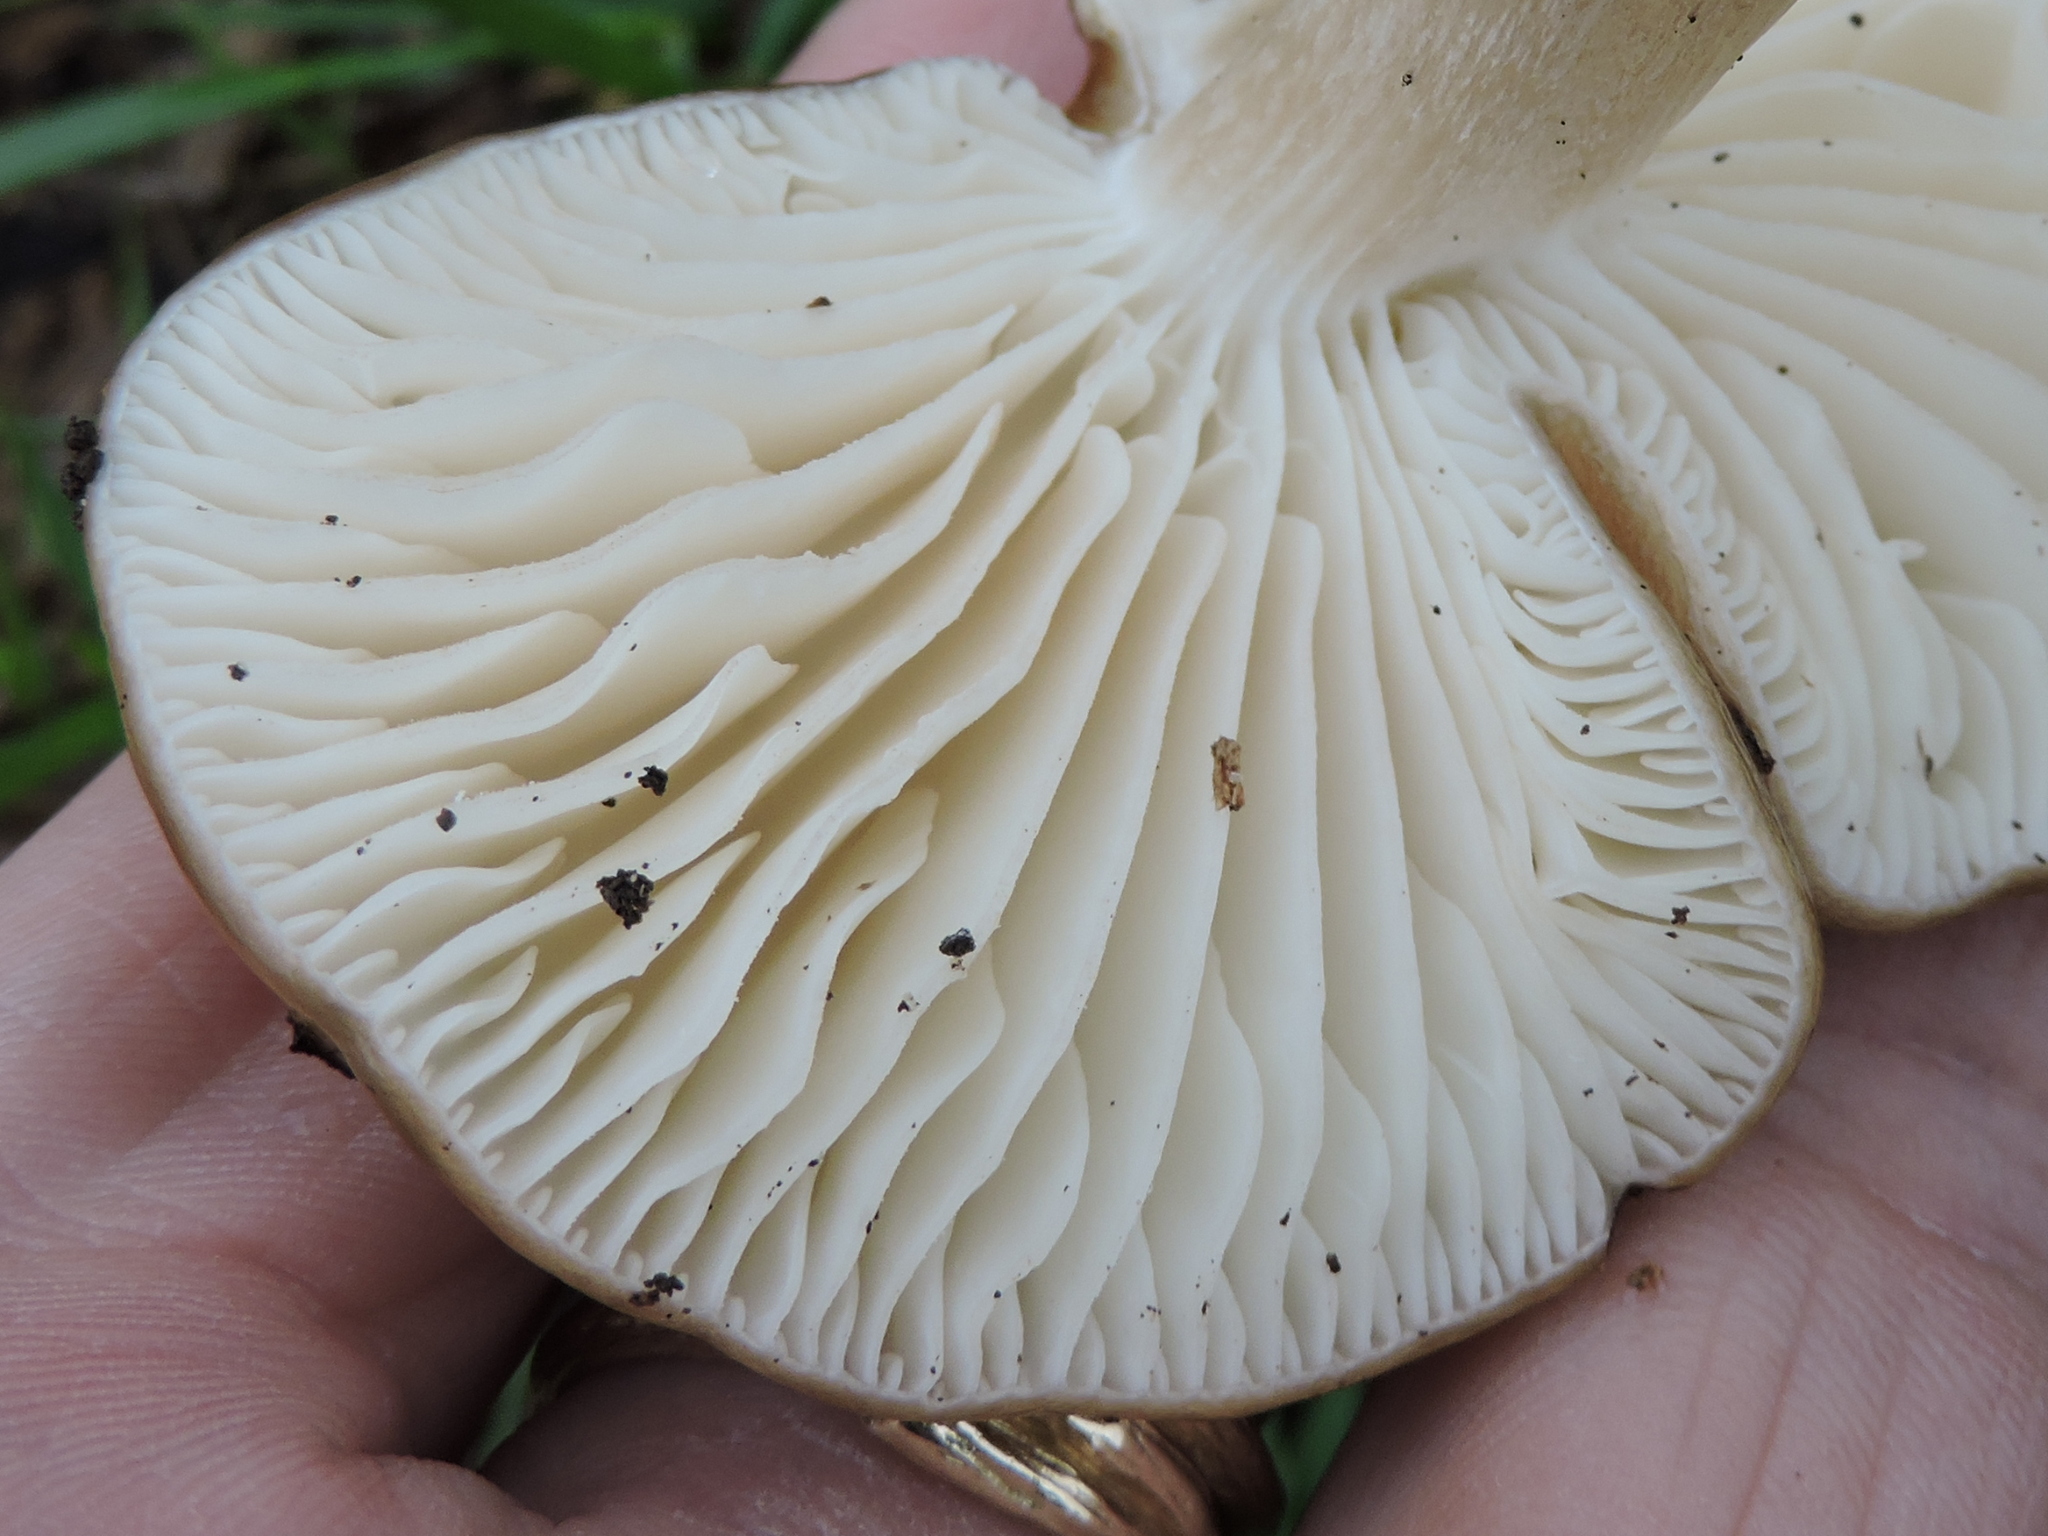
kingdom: Fungi
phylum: Basidiomycota
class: Agaricomycetes
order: Agaricales
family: Physalacriaceae
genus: Hymenopellis
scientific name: Hymenopellis sinapicolor
